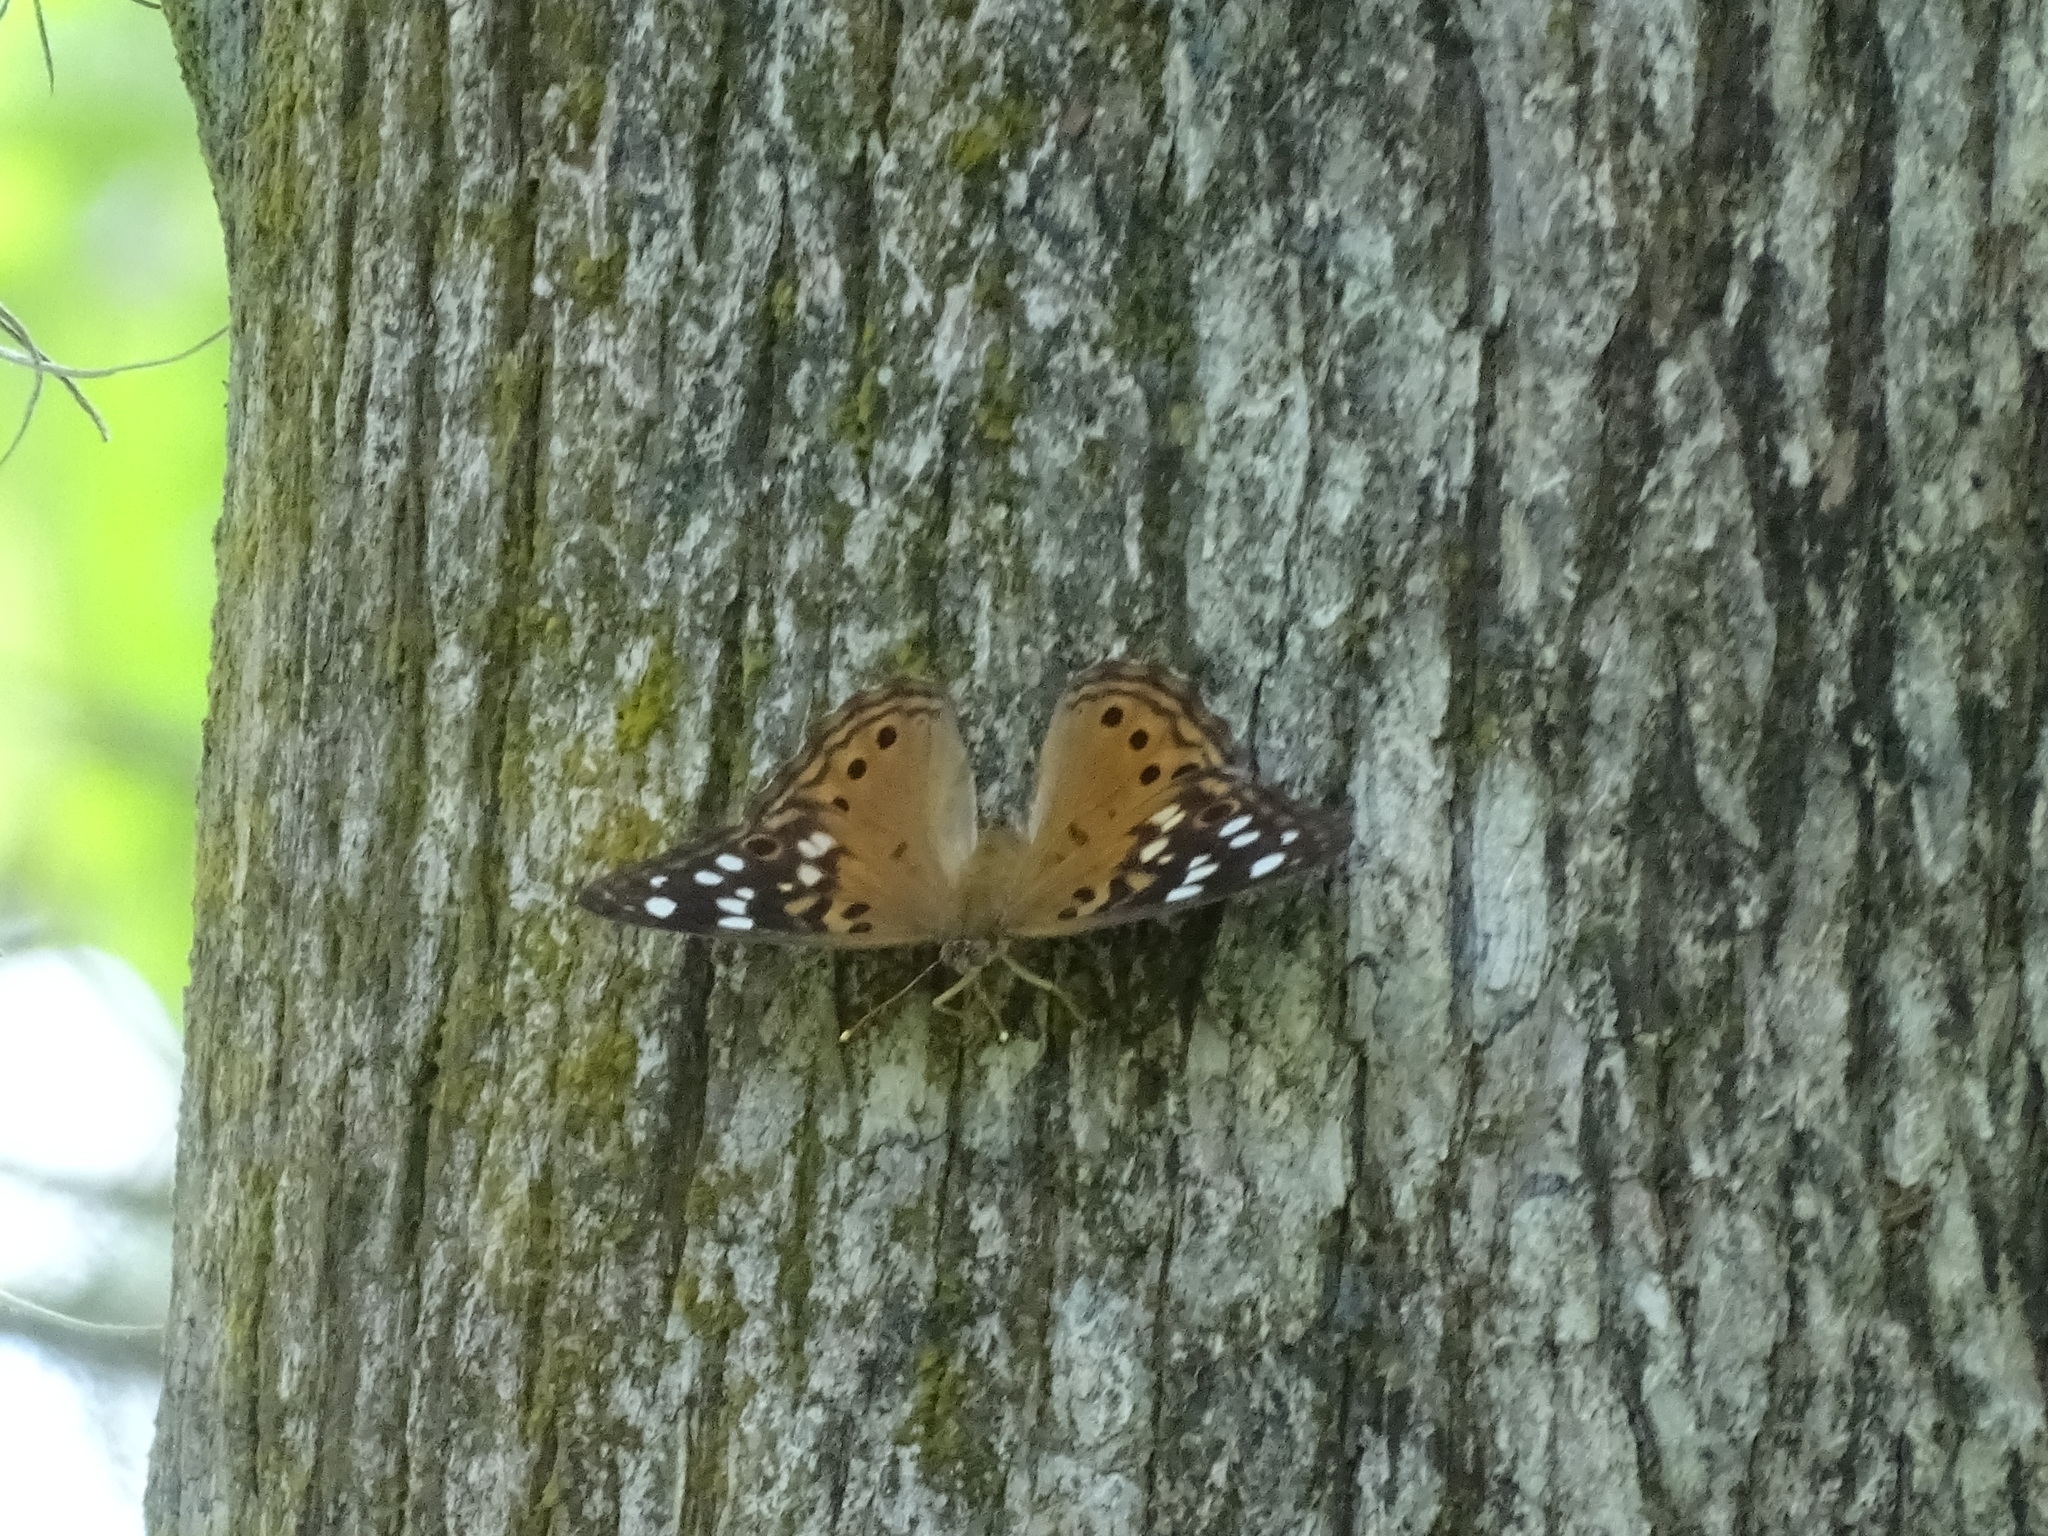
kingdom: Animalia
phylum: Arthropoda
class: Insecta
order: Lepidoptera
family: Nymphalidae
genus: Asterocampa
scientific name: Asterocampa celtis
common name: Hackberry emperor
